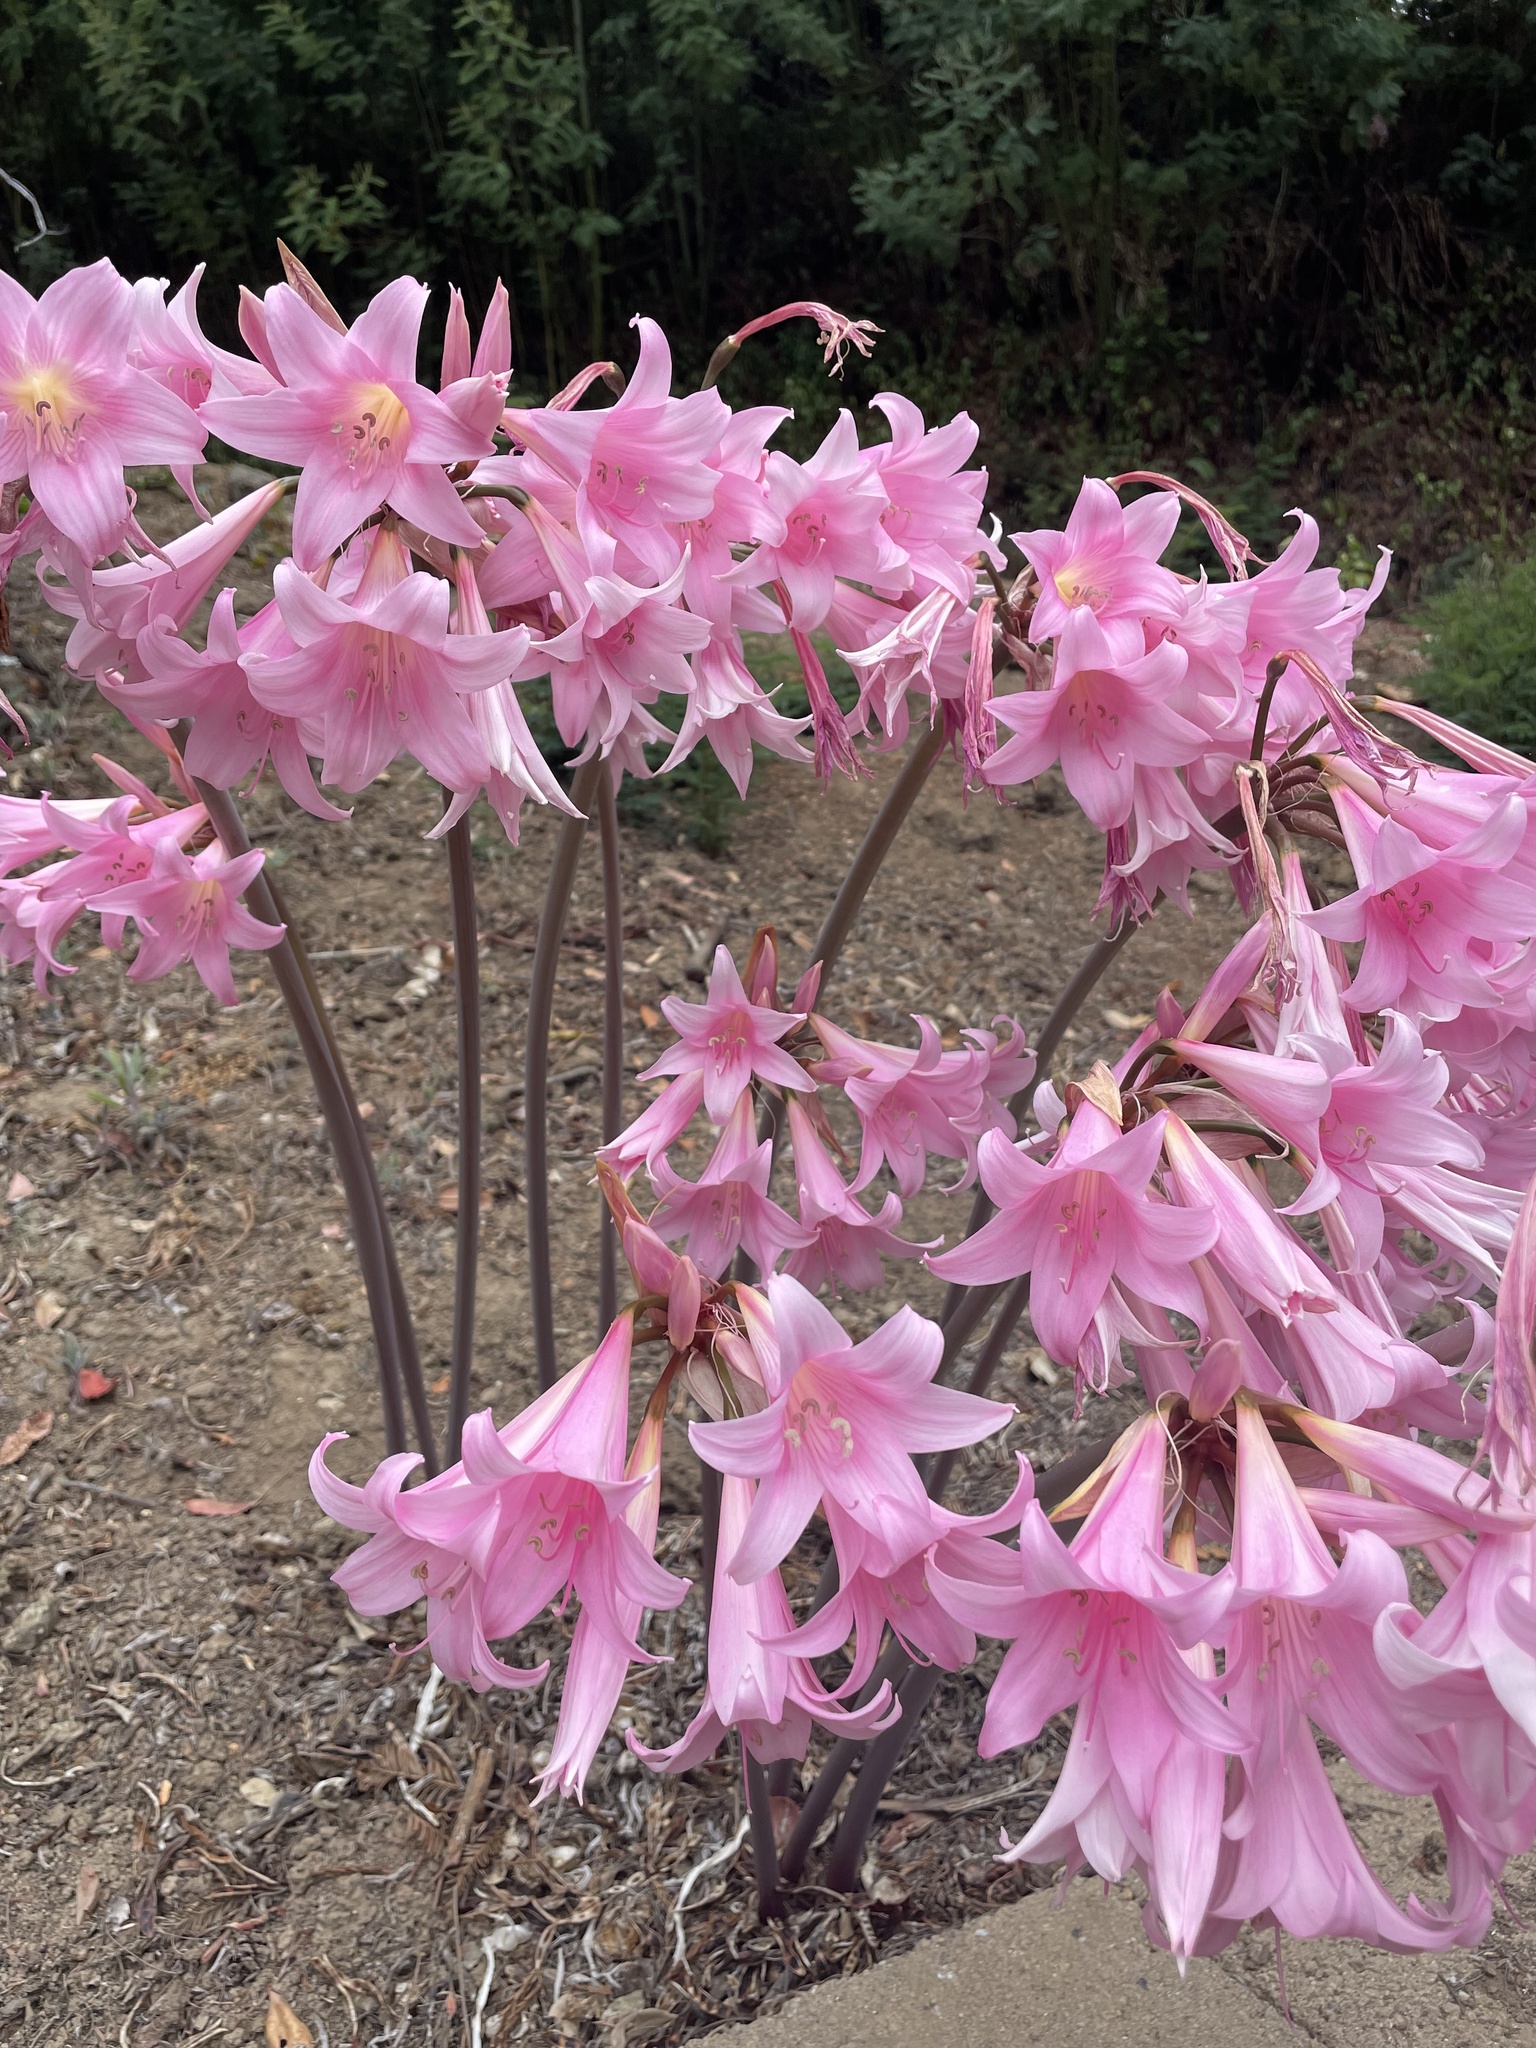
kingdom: Plantae
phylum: Tracheophyta
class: Liliopsida
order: Asparagales
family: Amaryllidaceae
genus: Amaryllis
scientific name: Amaryllis belladonna
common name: Jersey lily
